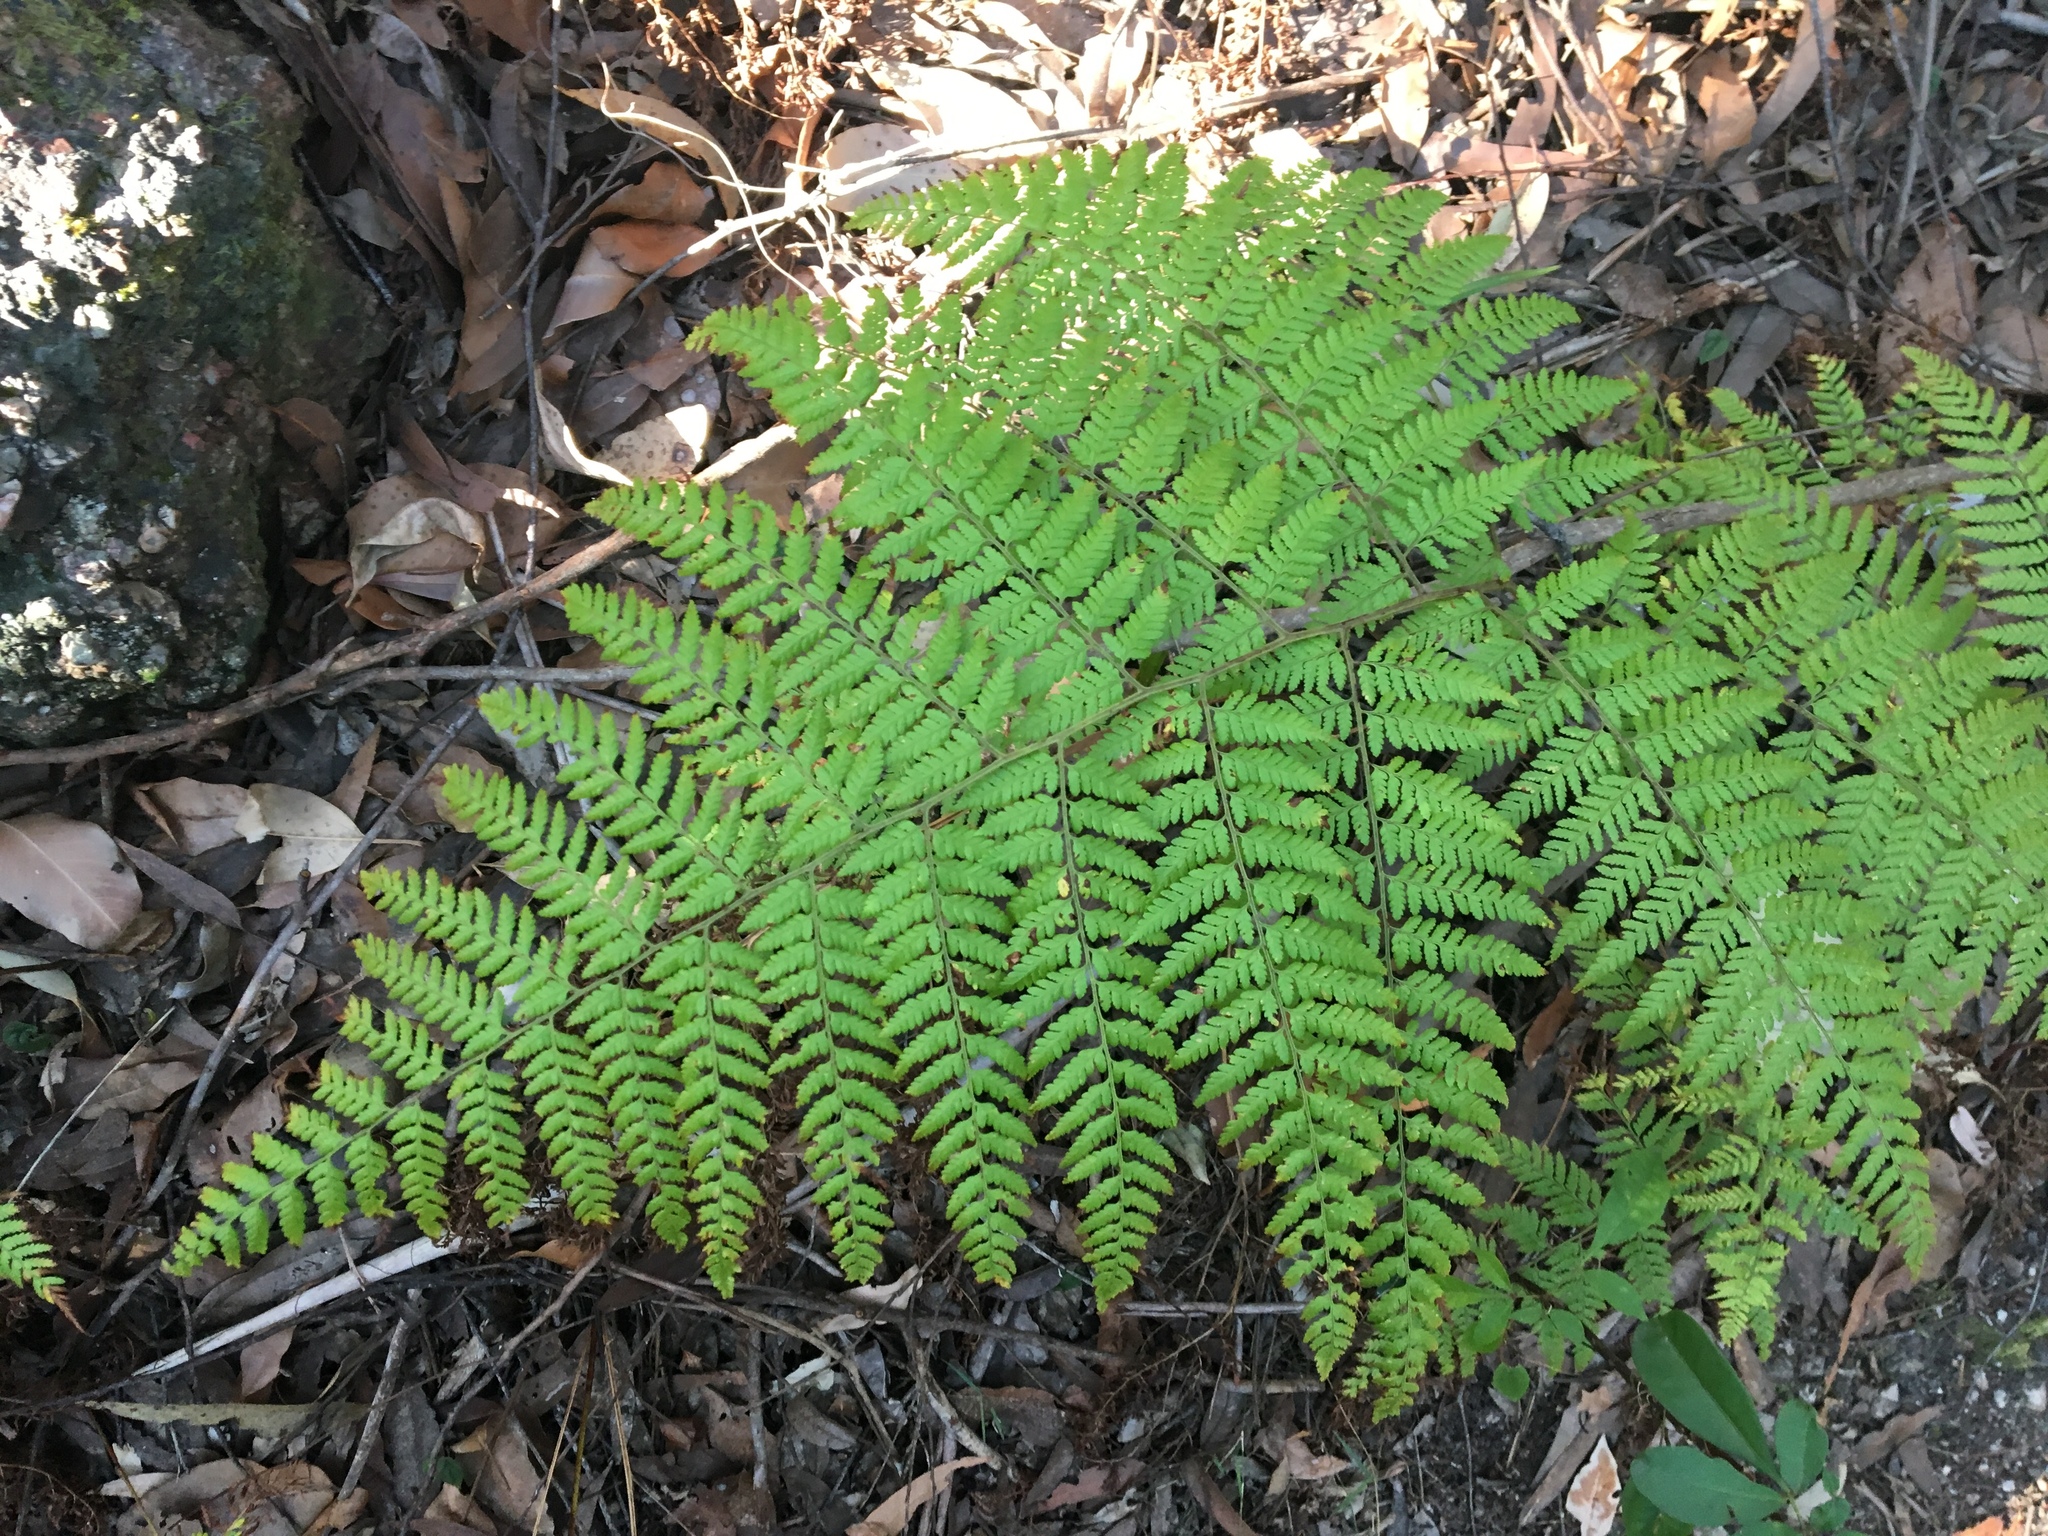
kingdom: Plantae
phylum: Tracheophyta
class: Polypodiopsida
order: Cyatheales
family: Dicksoniaceae
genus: Calochlaena
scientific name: Calochlaena dubia
